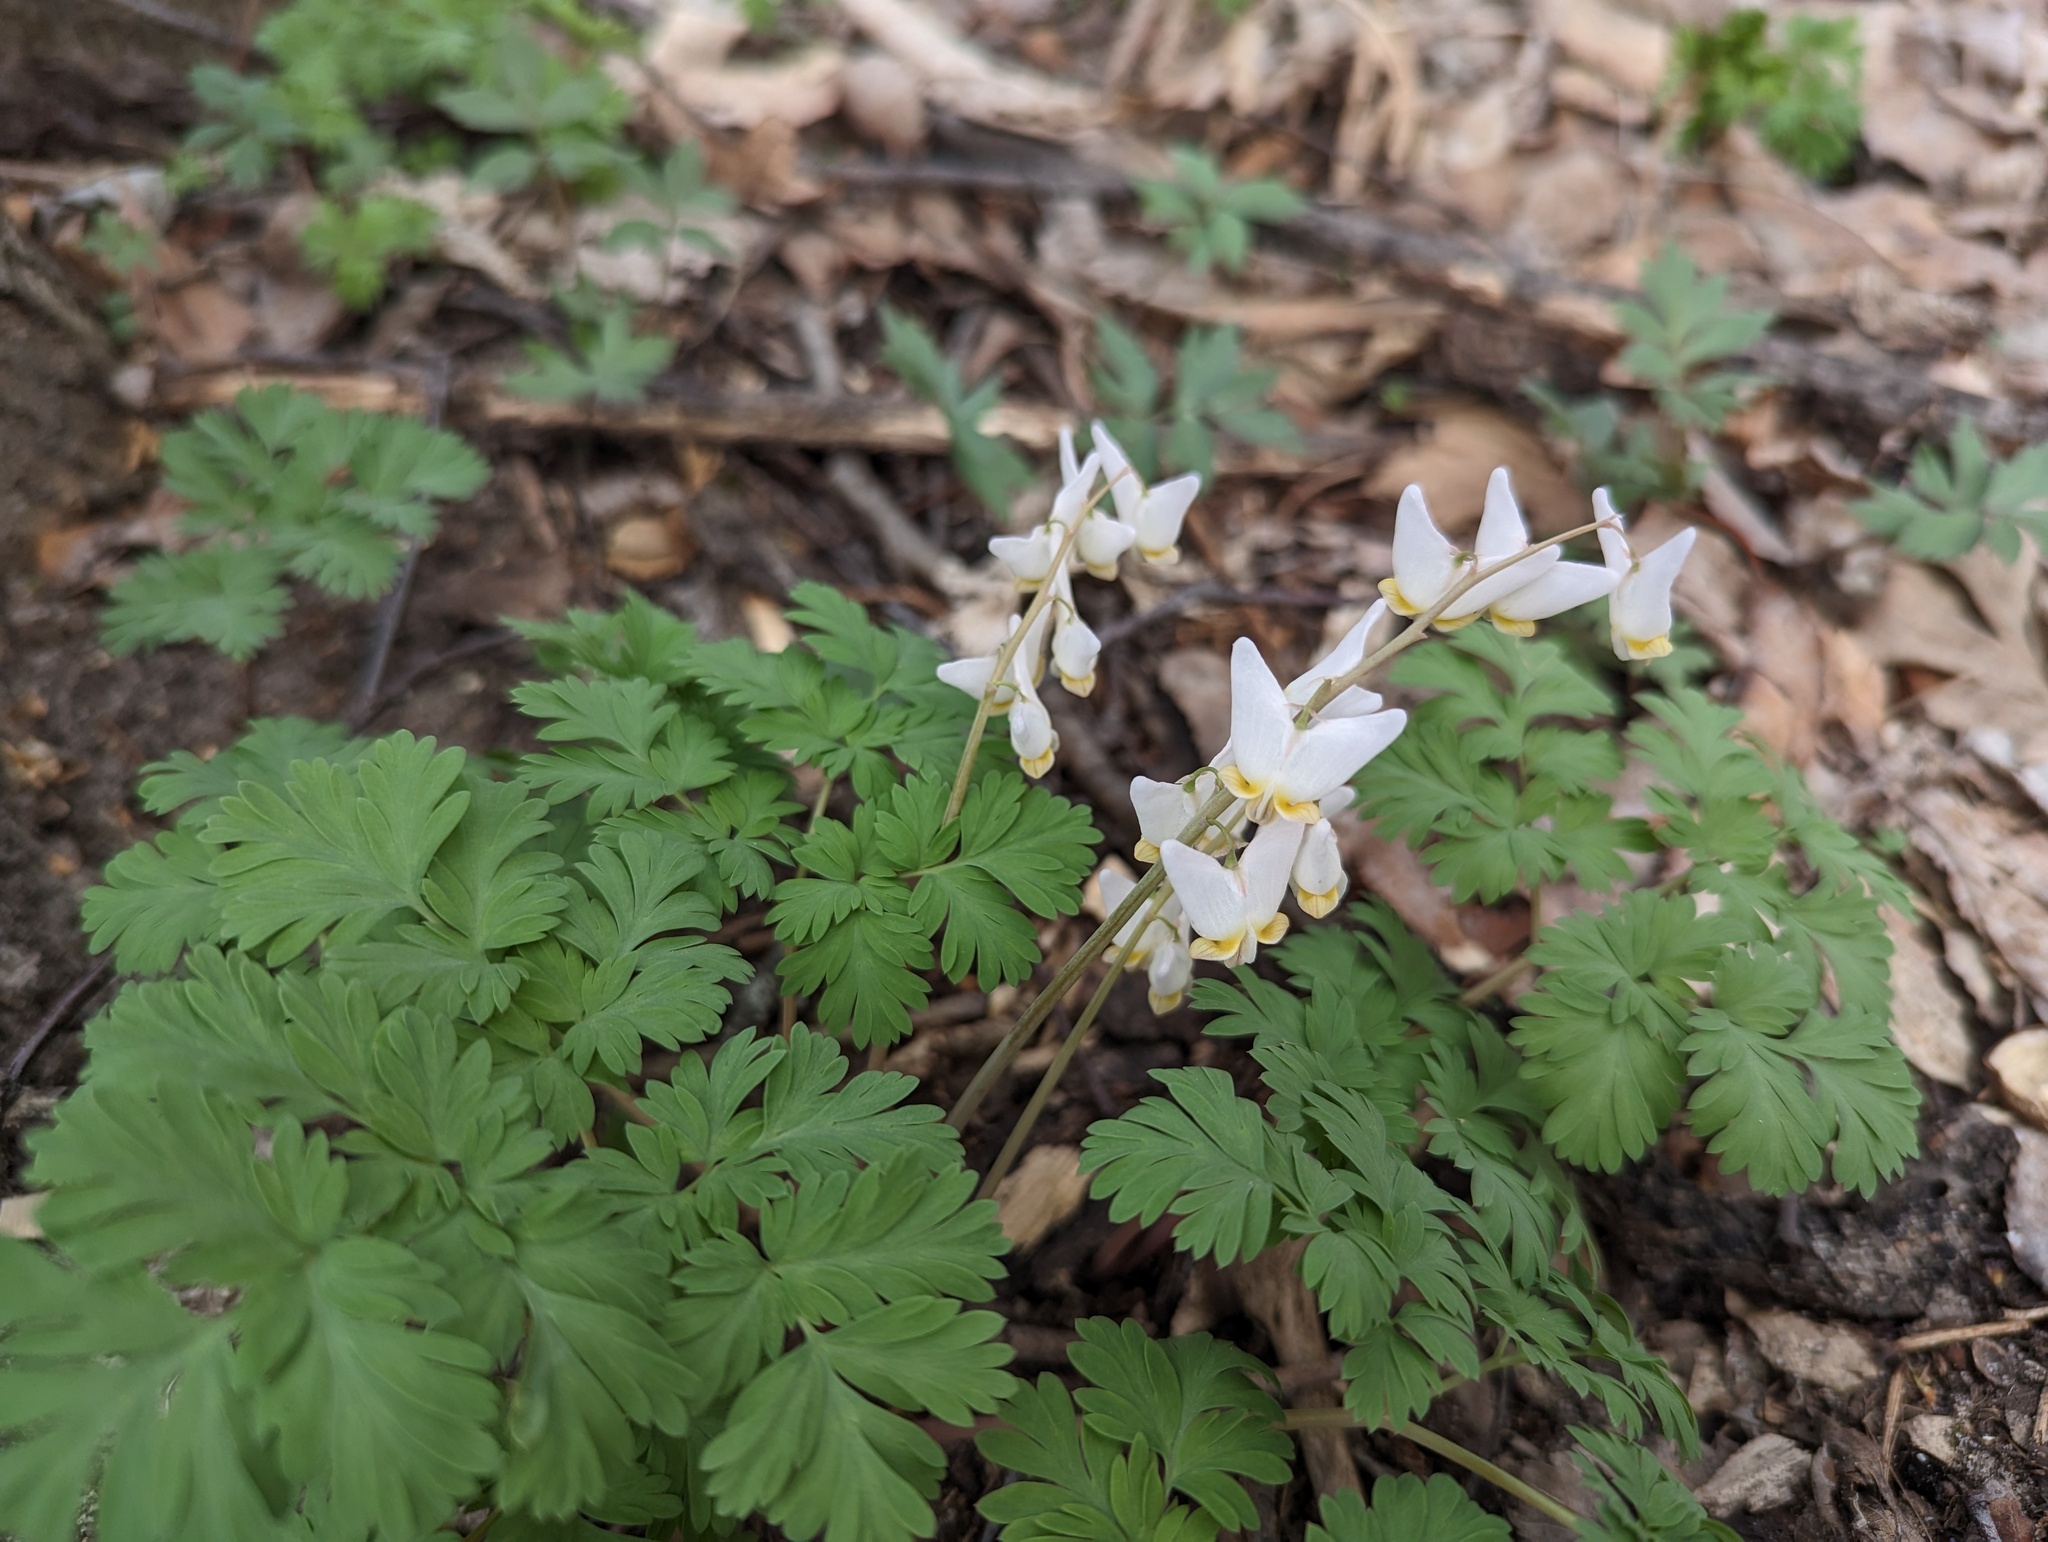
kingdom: Plantae
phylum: Tracheophyta
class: Magnoliopsida
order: Ranunculales
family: Papaveraceae
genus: Dicentra
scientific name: Dicentra cucullaria
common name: Dutchman's breeches
